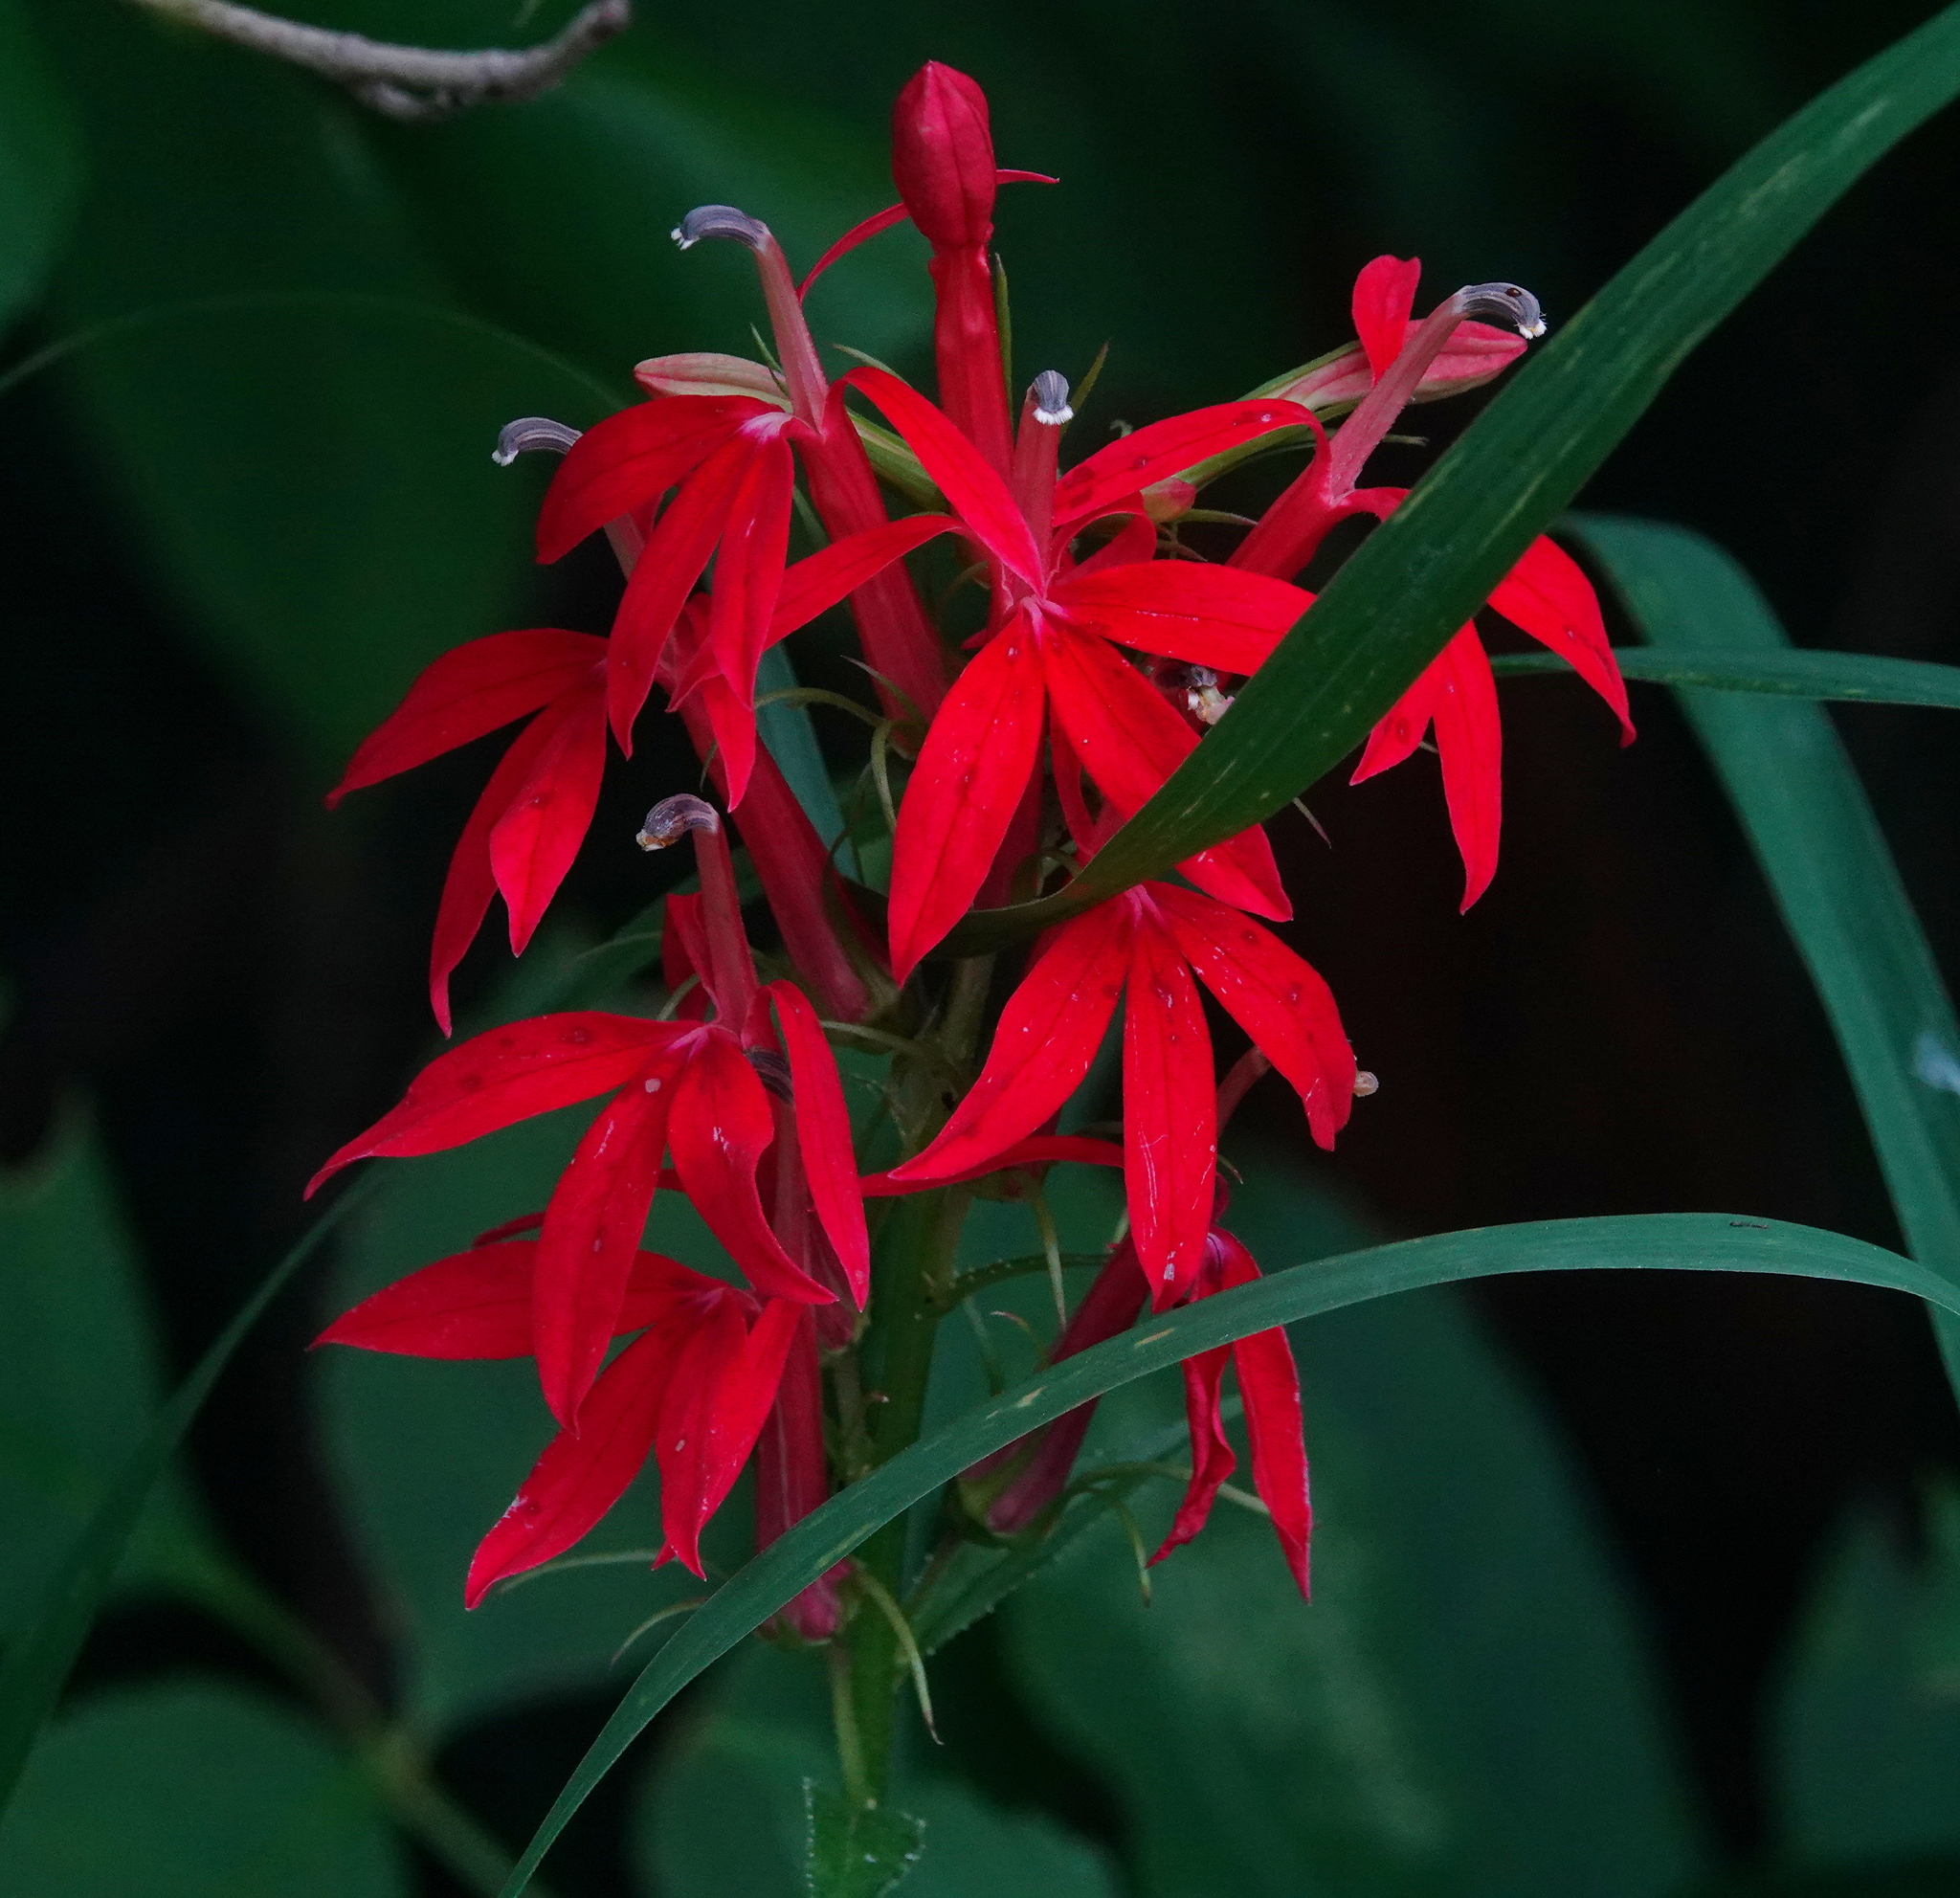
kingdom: Plantae
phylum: Tracheophyta
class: Magnoliopsida
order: Asterales
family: Campanulaceae
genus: Lobelia
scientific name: Lobelia cardinalis
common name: Cardinal flower
